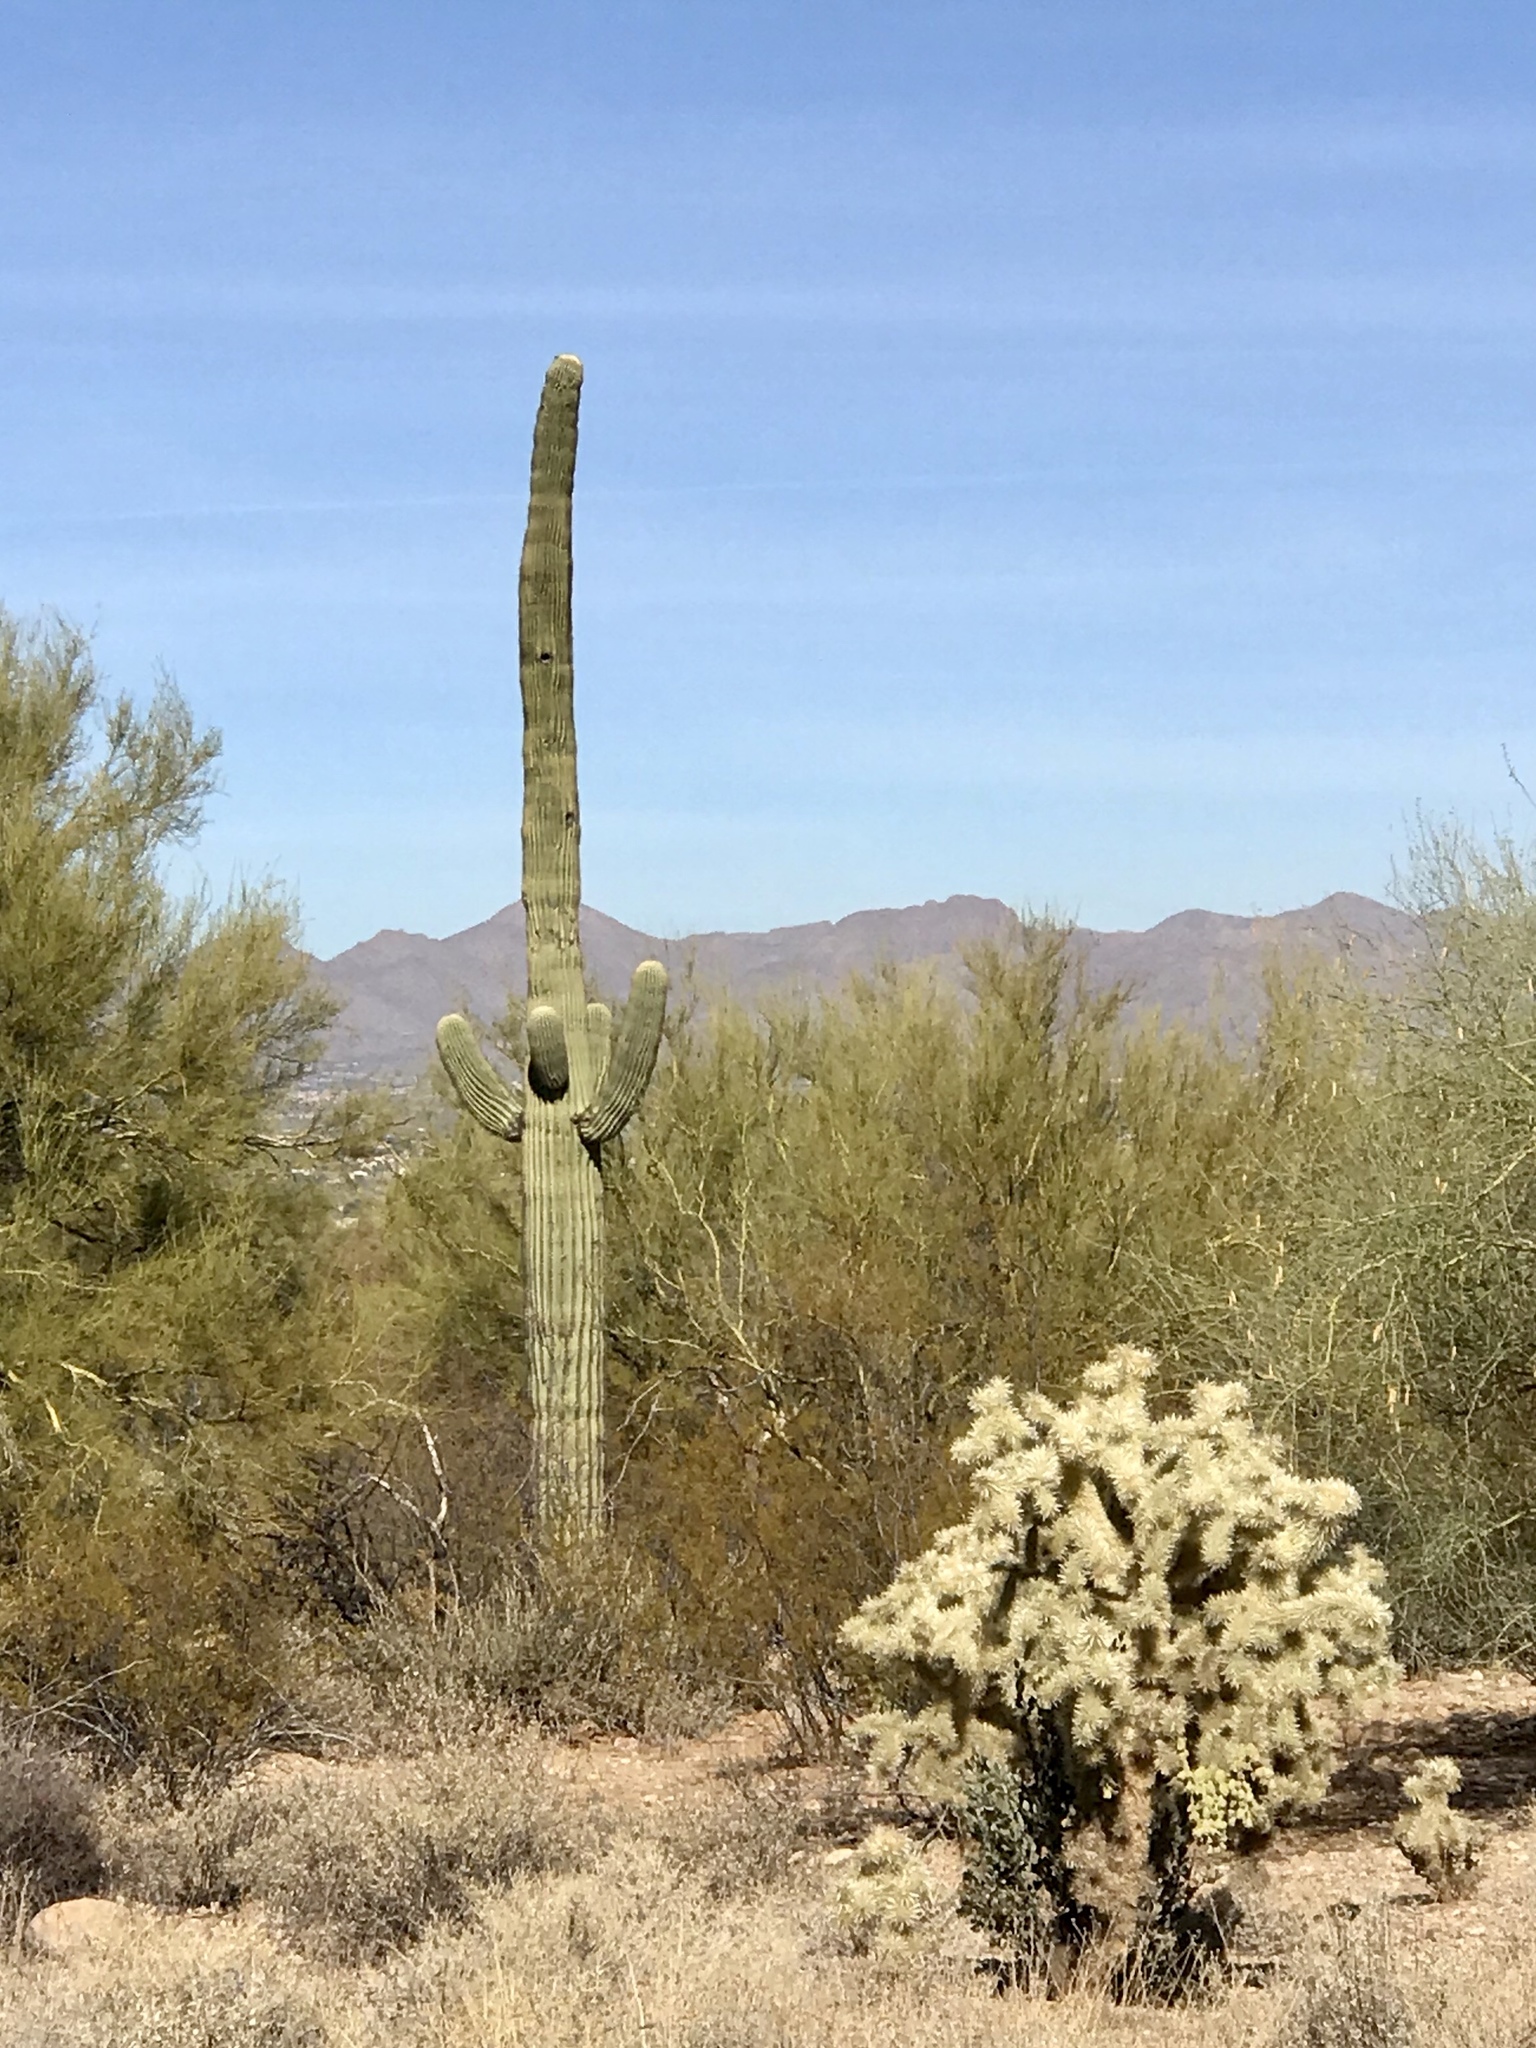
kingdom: Plantae
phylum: Tracheophyta
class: Magnoliopsida
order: Caryophyllales
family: Cactaceae
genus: Cylindropuntia
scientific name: Cylindropuntia fulgida
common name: Jumping cholla
